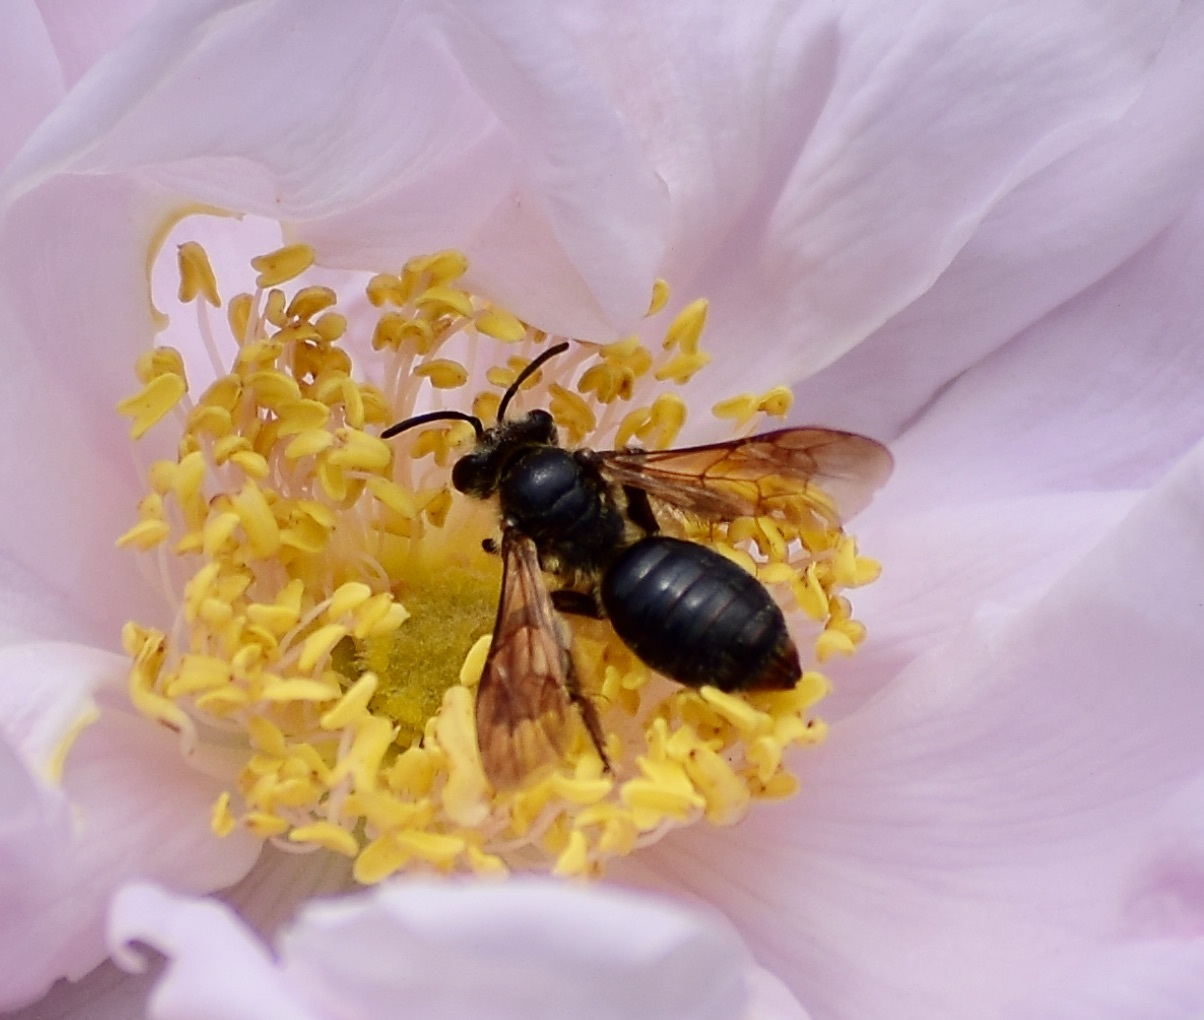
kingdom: Animalia
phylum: Arthropoda
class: Insecta
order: Hymenoptera
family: Andrenidae
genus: Andrena
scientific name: Andrena crataegi
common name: Hawthorn mining bee
